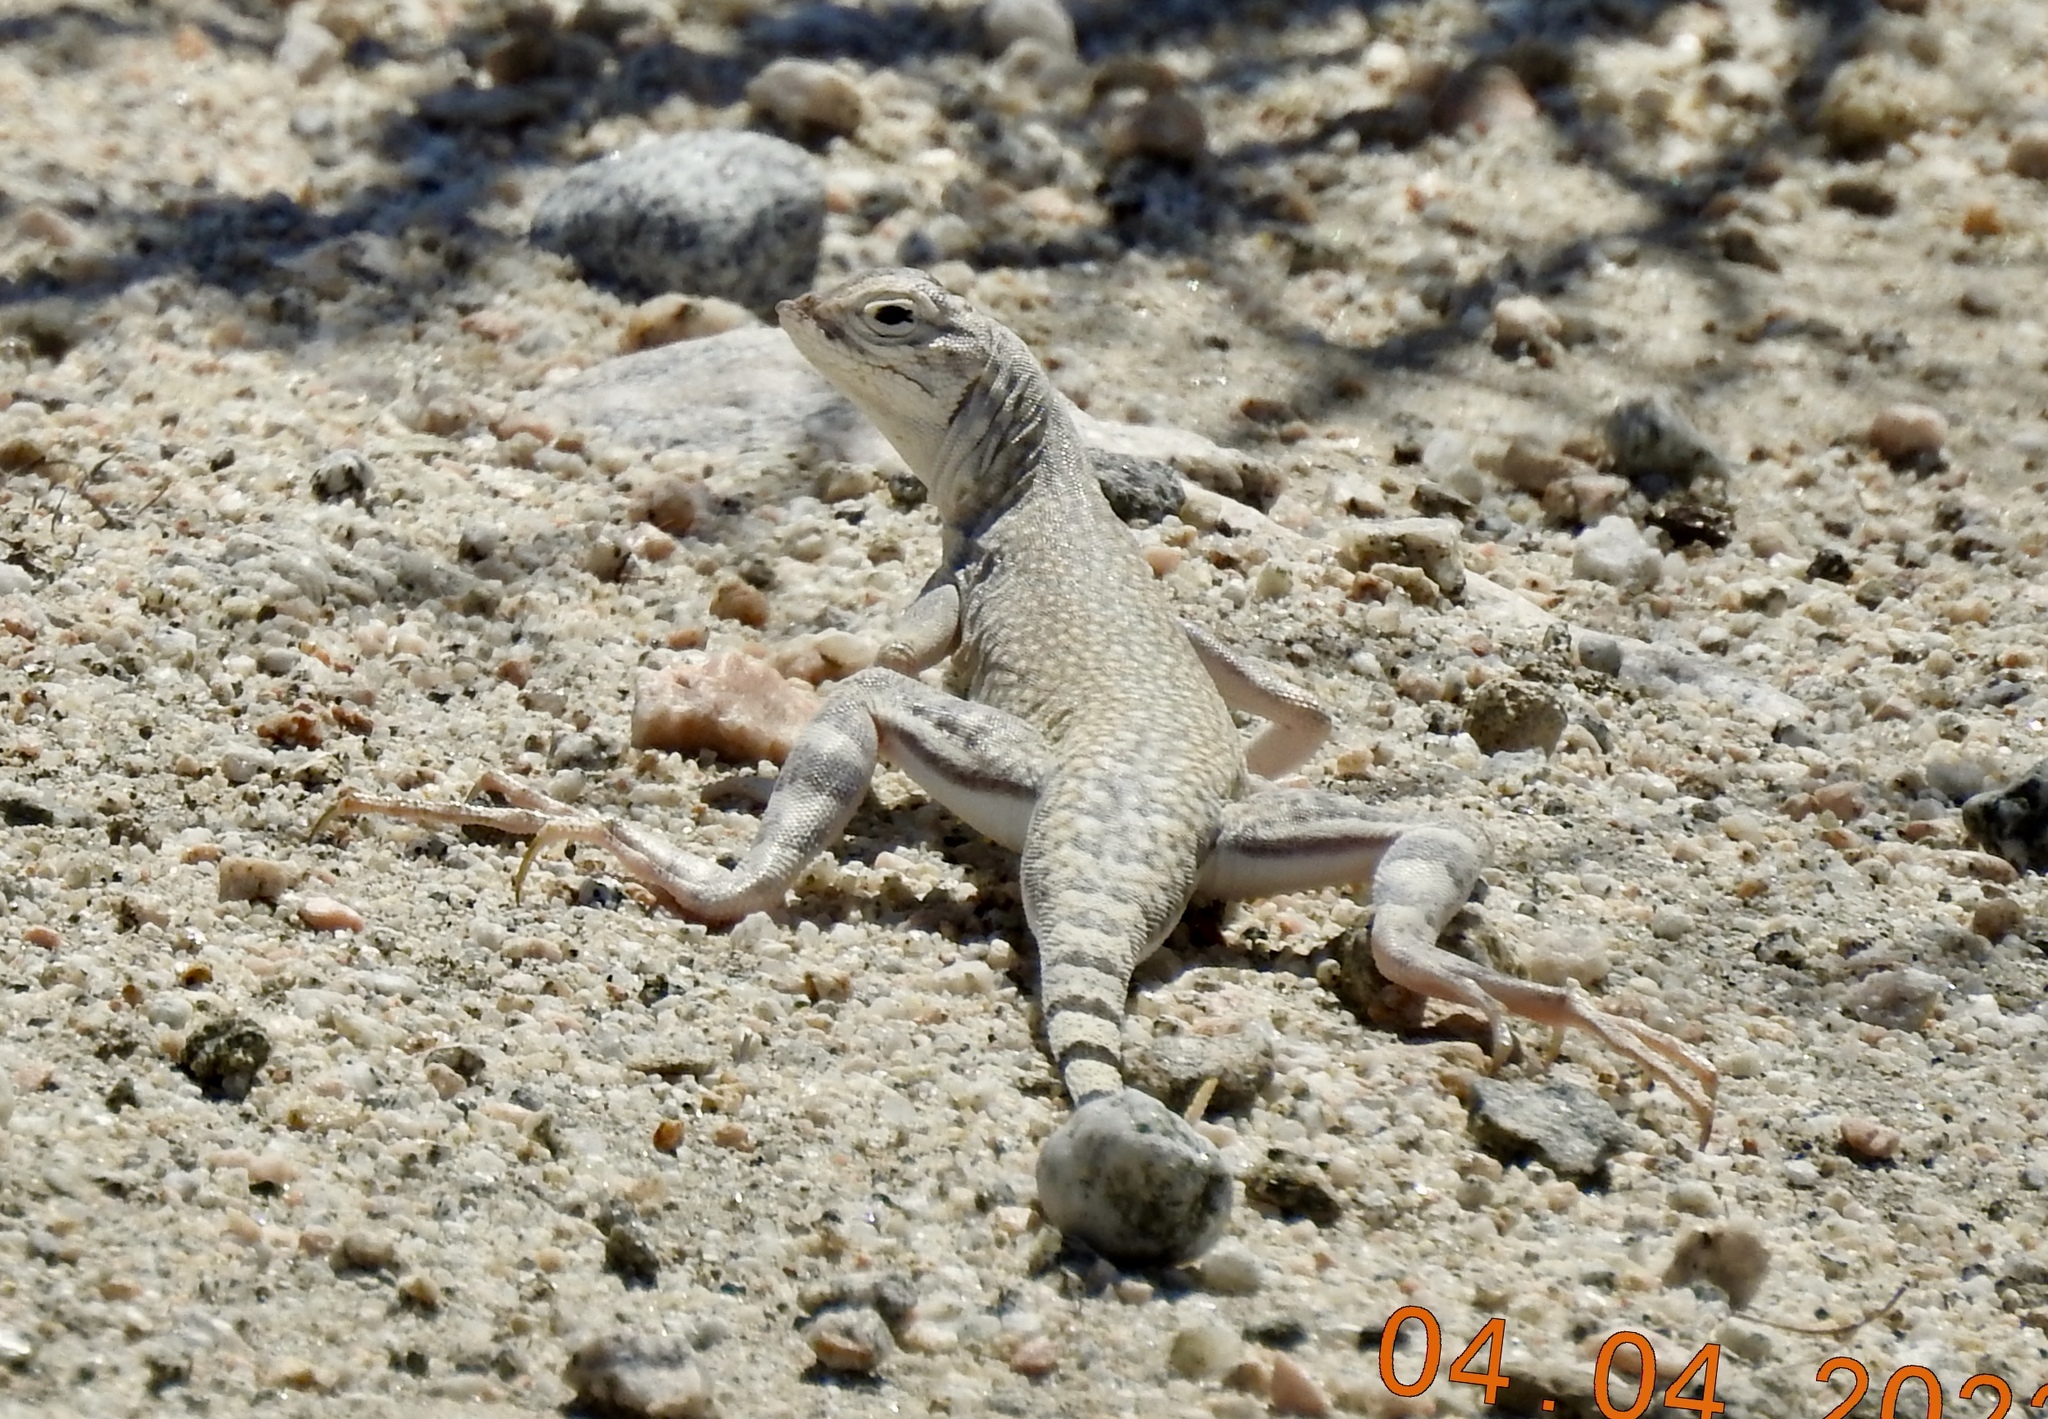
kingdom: Animalia
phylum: Chordata
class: Squamata
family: Phrynosomatidae
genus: Callisaurus
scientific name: Callisaurus draconoides
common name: Zebra-tailed lizard
